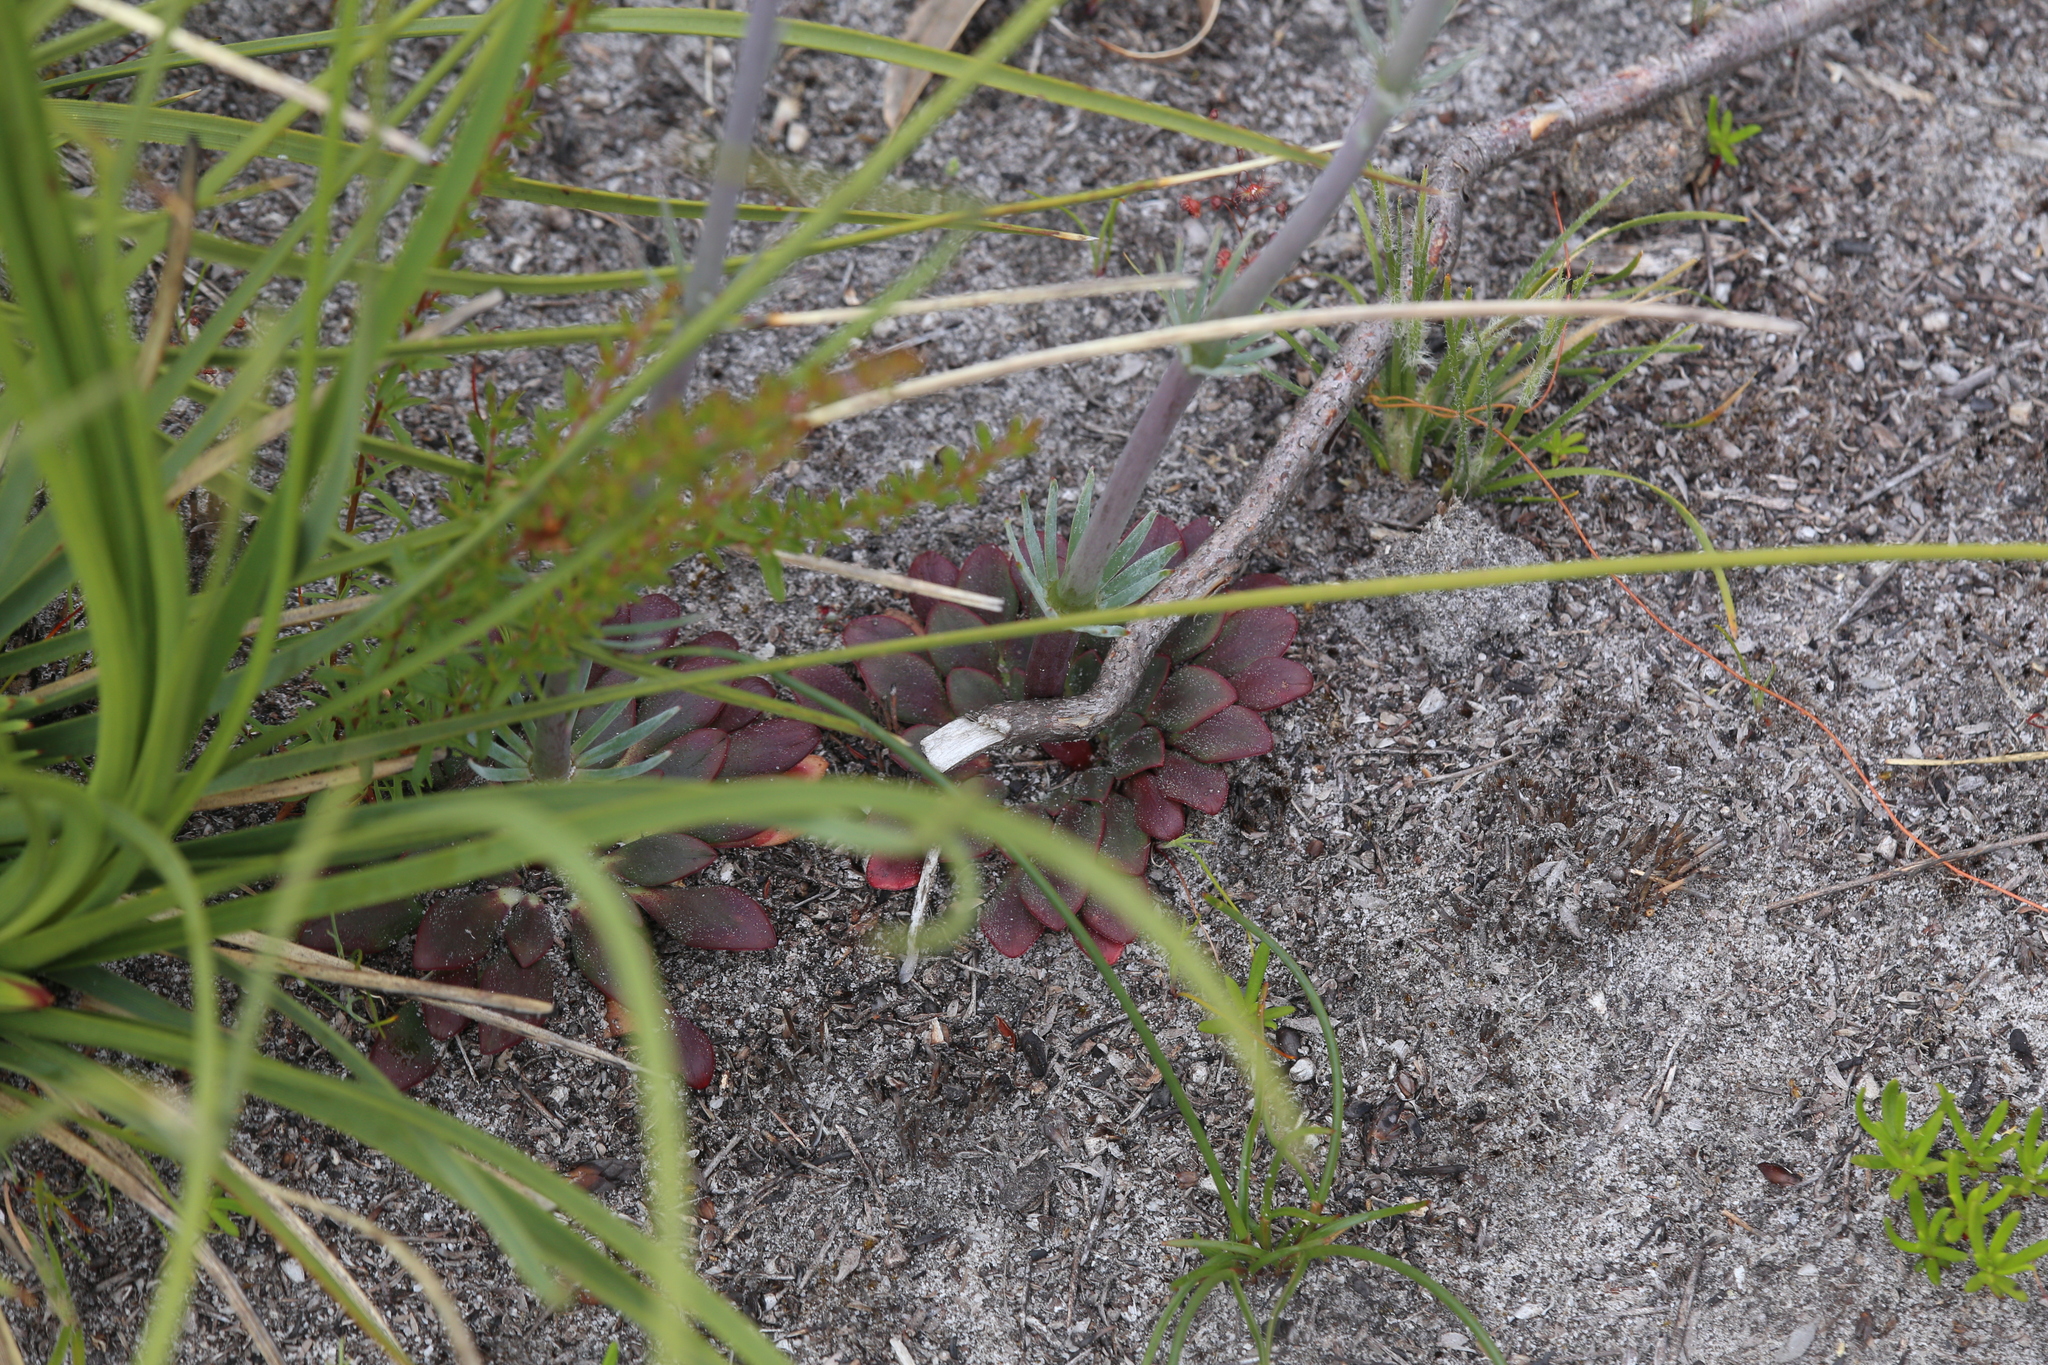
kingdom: Plantae
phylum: Tracheophyta
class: Magnoliopsida
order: Asterales
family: Stylidiaceae
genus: Stylidium
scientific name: Stylidium diversifolium
